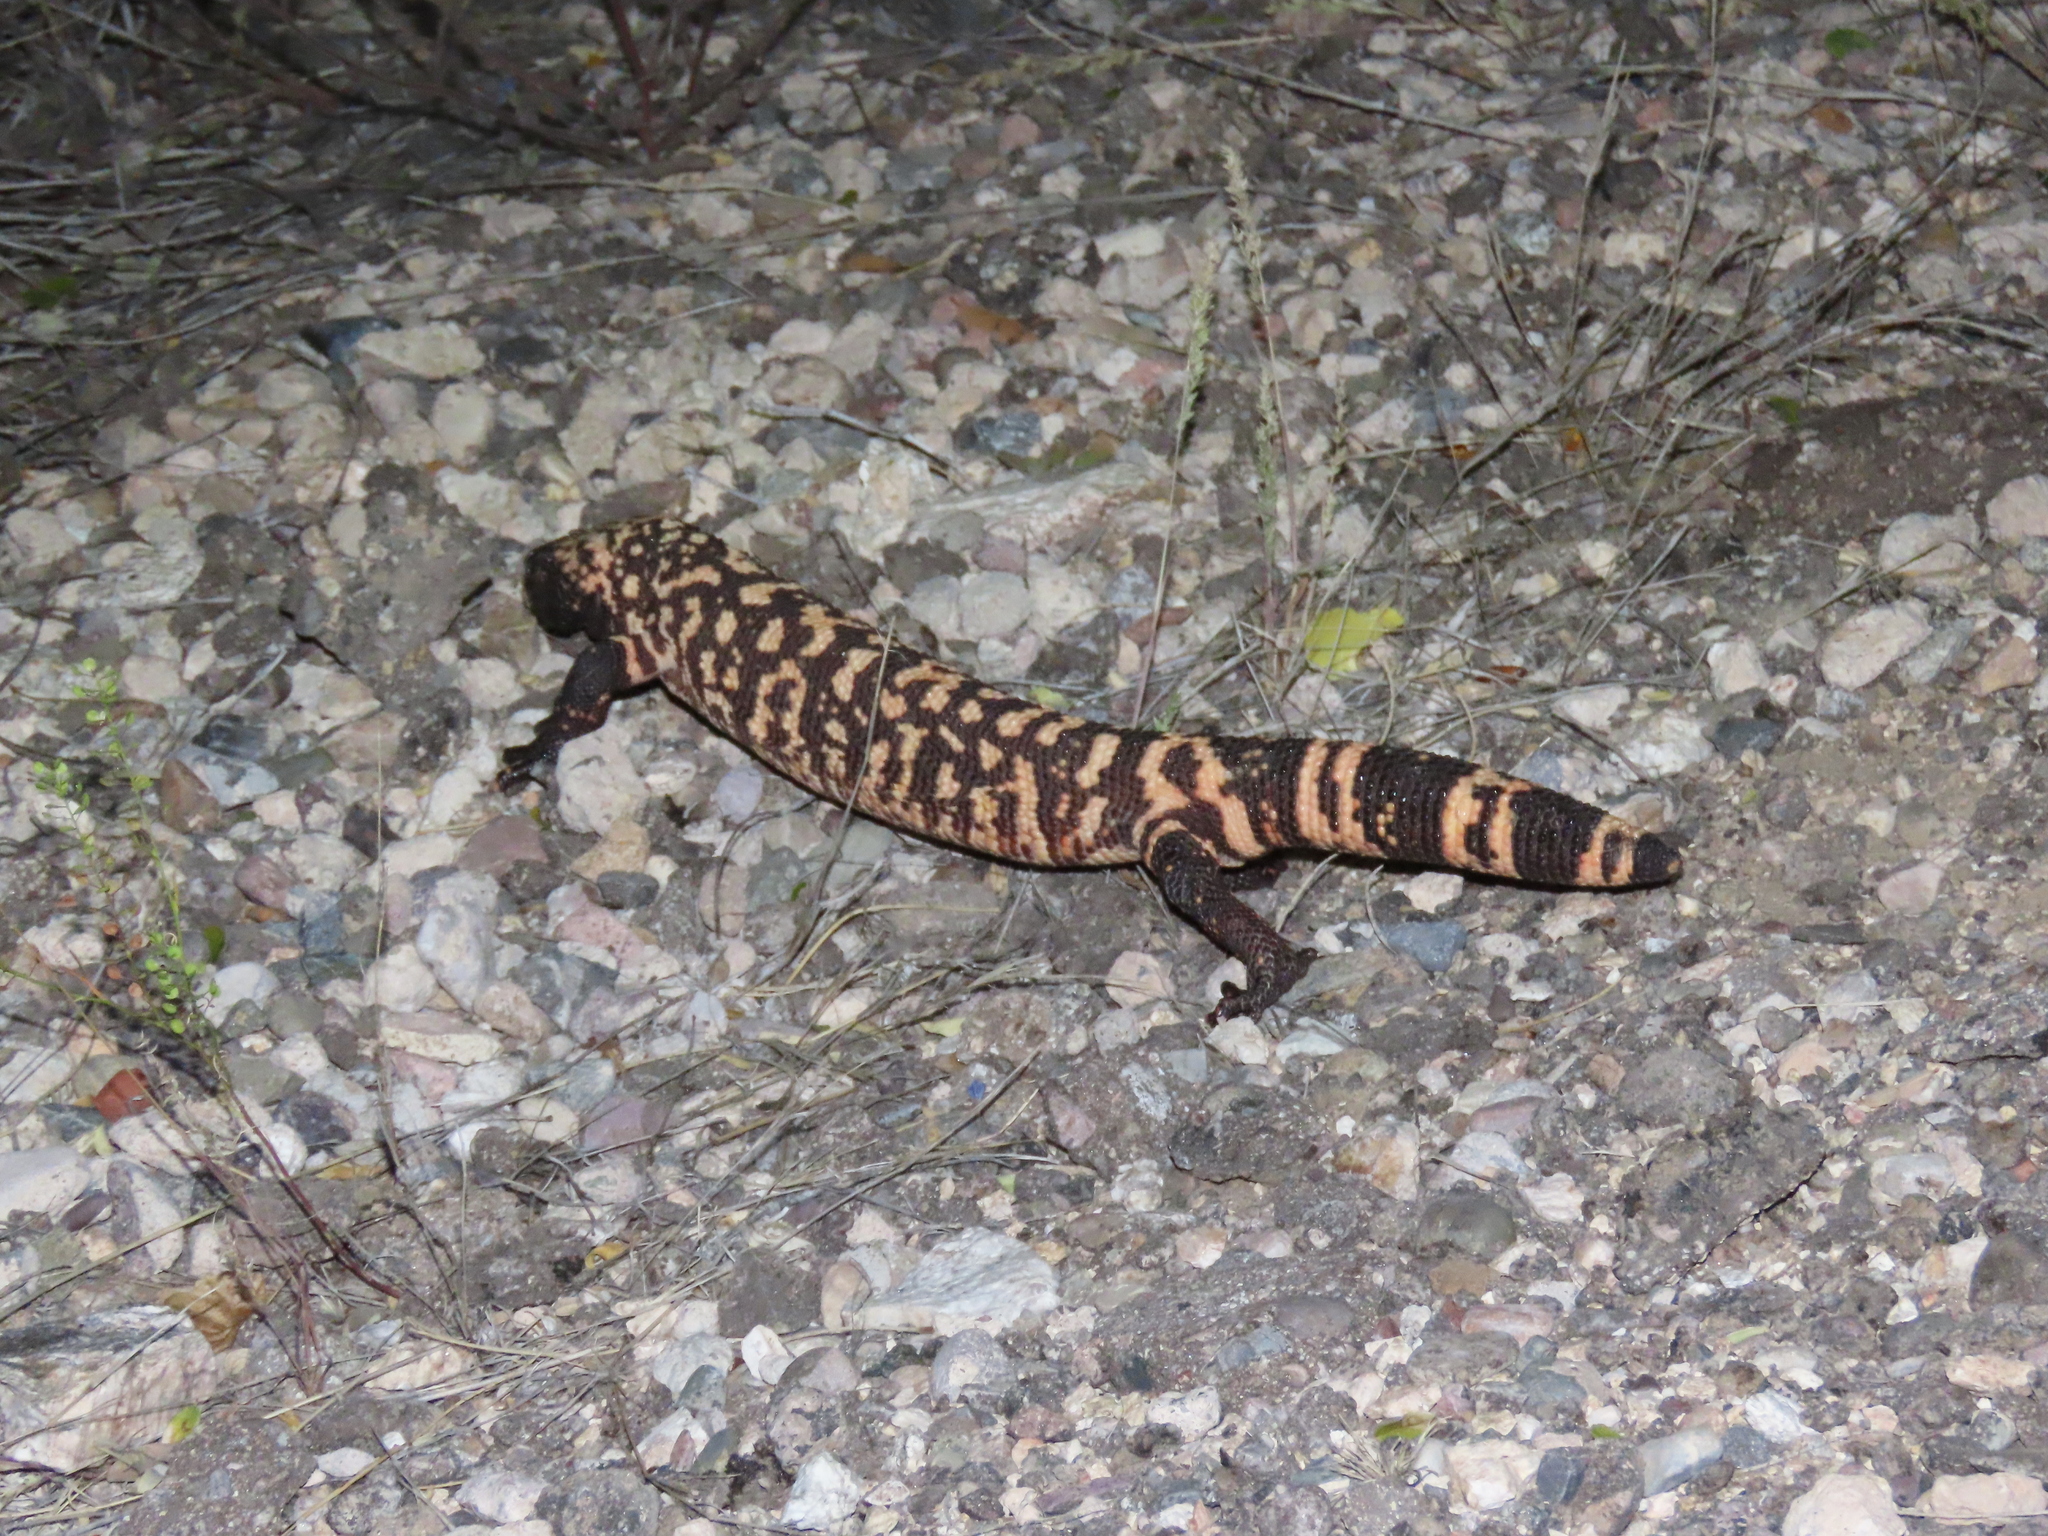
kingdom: Animalia
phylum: Chordata
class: Squamata
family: Helodermatidae
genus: Heloderma
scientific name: Heloderma suspectum
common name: Gila monster
